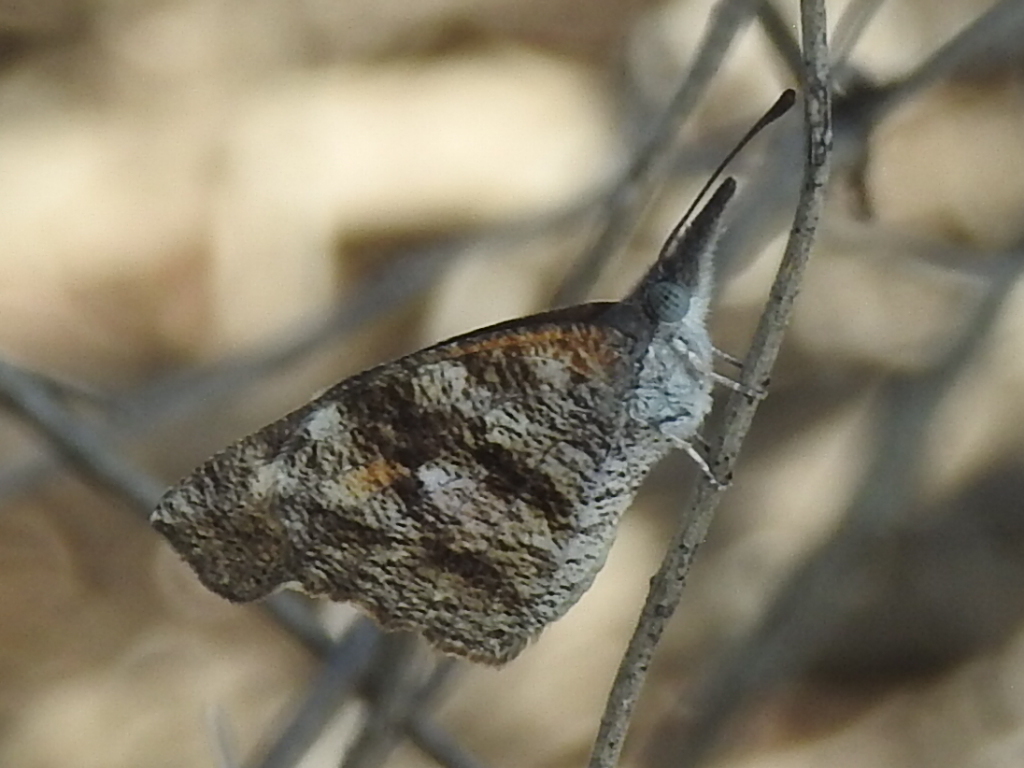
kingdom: Animalia
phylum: Arthropoda
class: Insecta
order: Lepidoptera
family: Nymphalidae
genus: Libytheana
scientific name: Libytheana carinenta
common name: American snout
